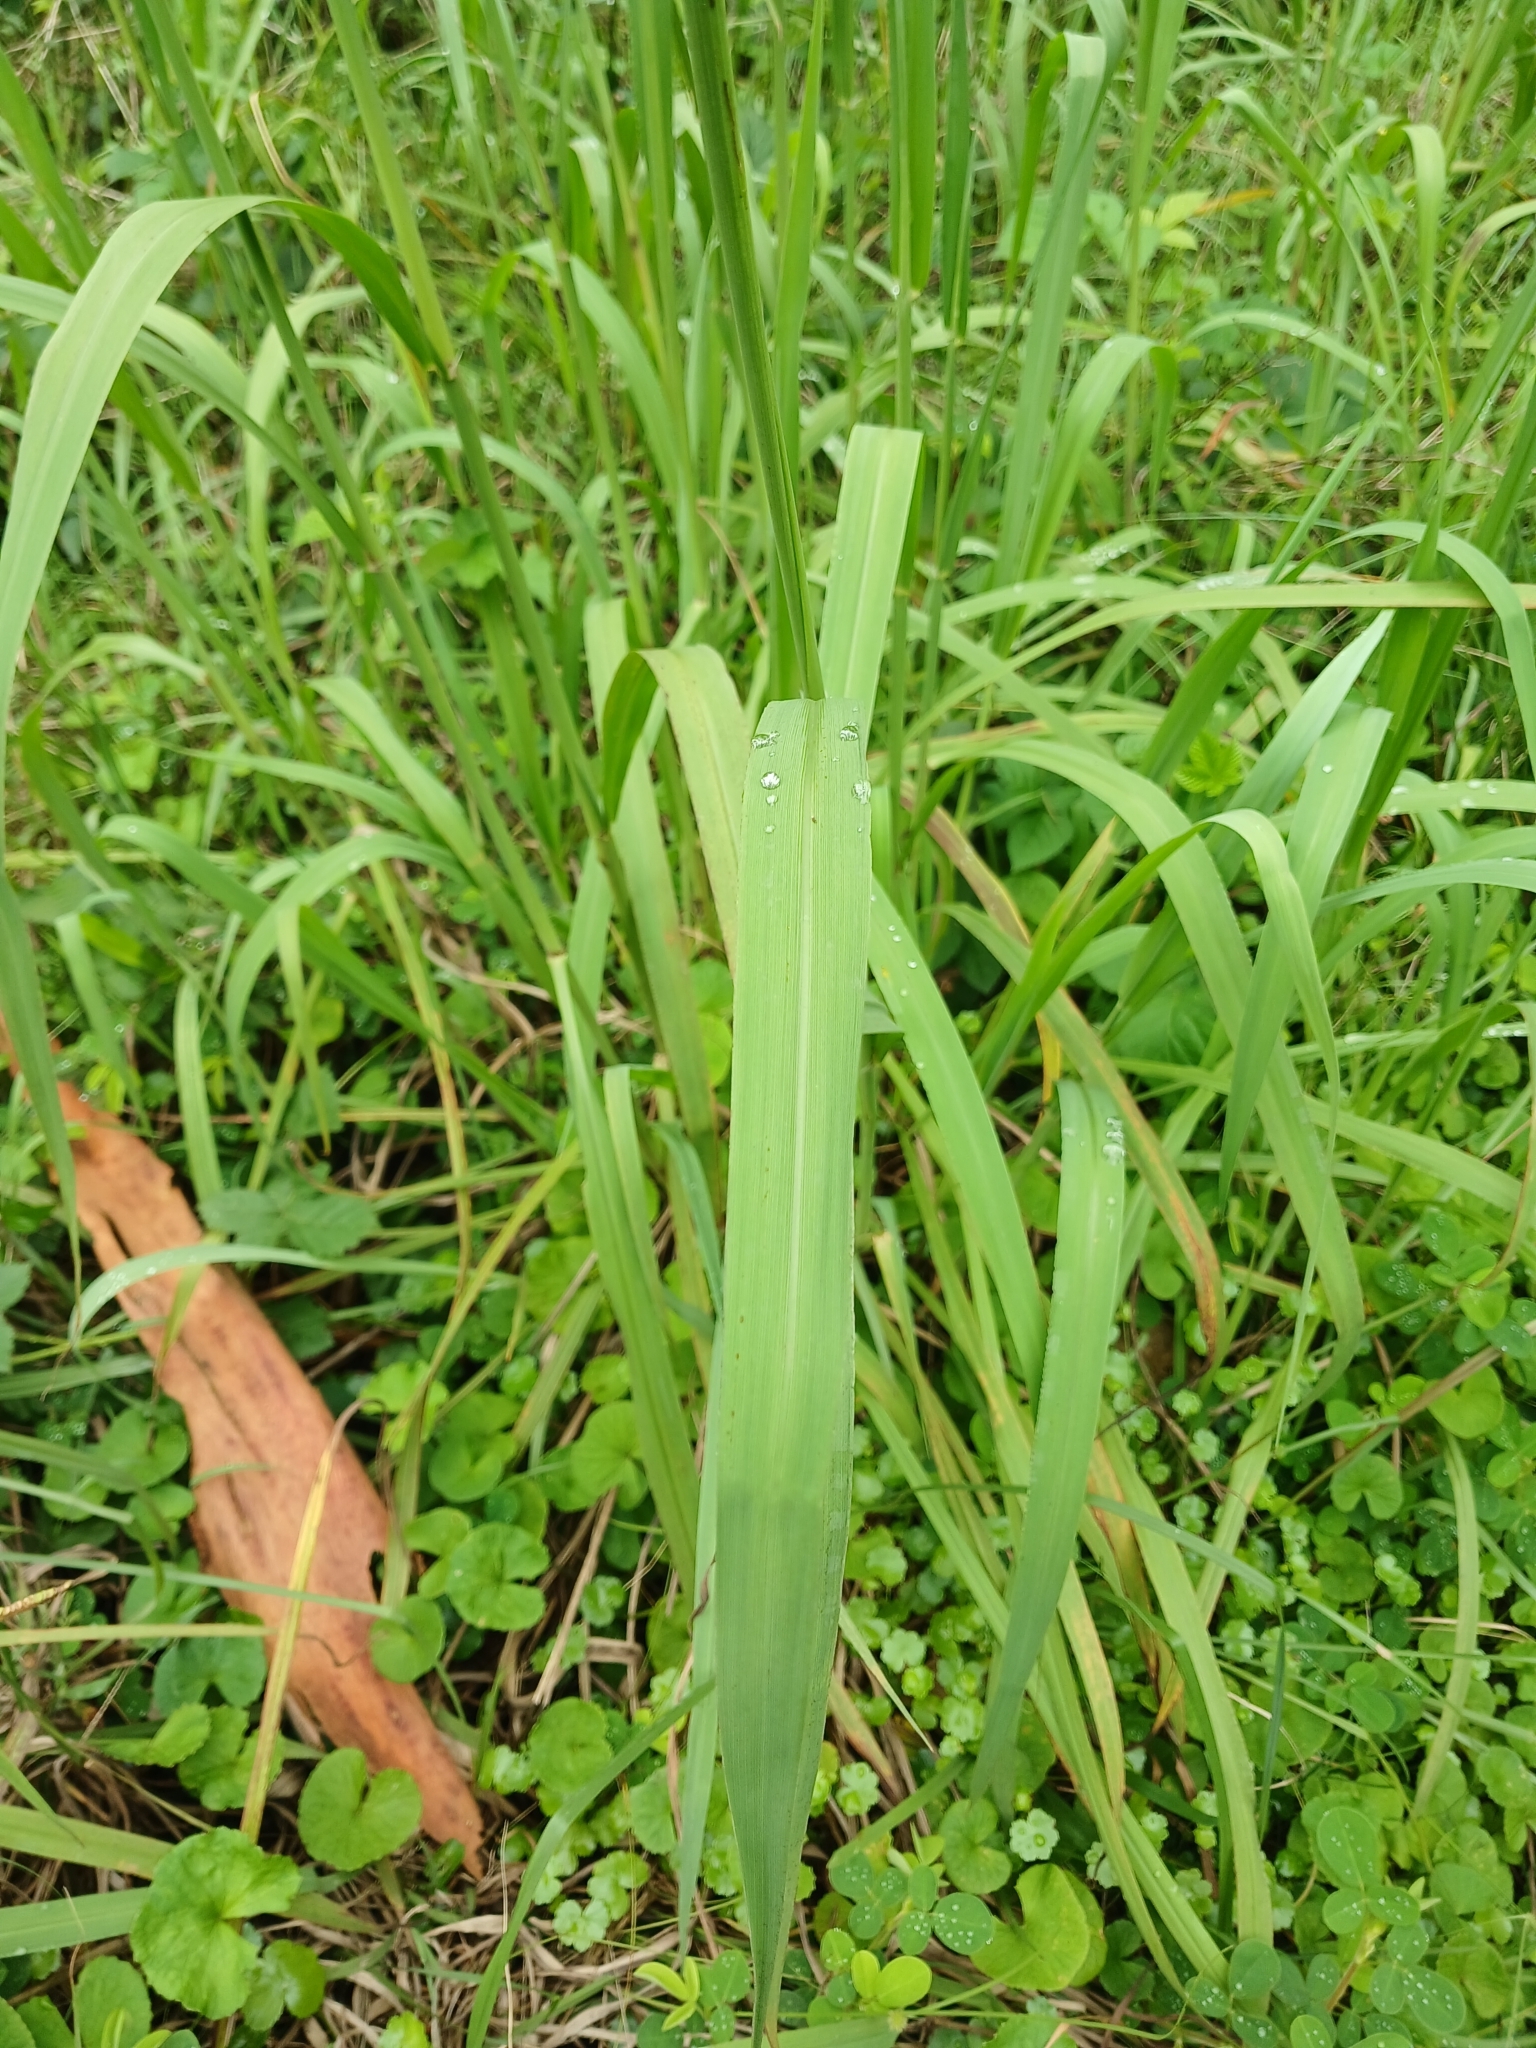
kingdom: Plantae
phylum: Tracheophyta
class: Liliopsida
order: Poales
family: Poaceae
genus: Paspalum
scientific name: Paspalum urvillei
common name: Vasey's grass
